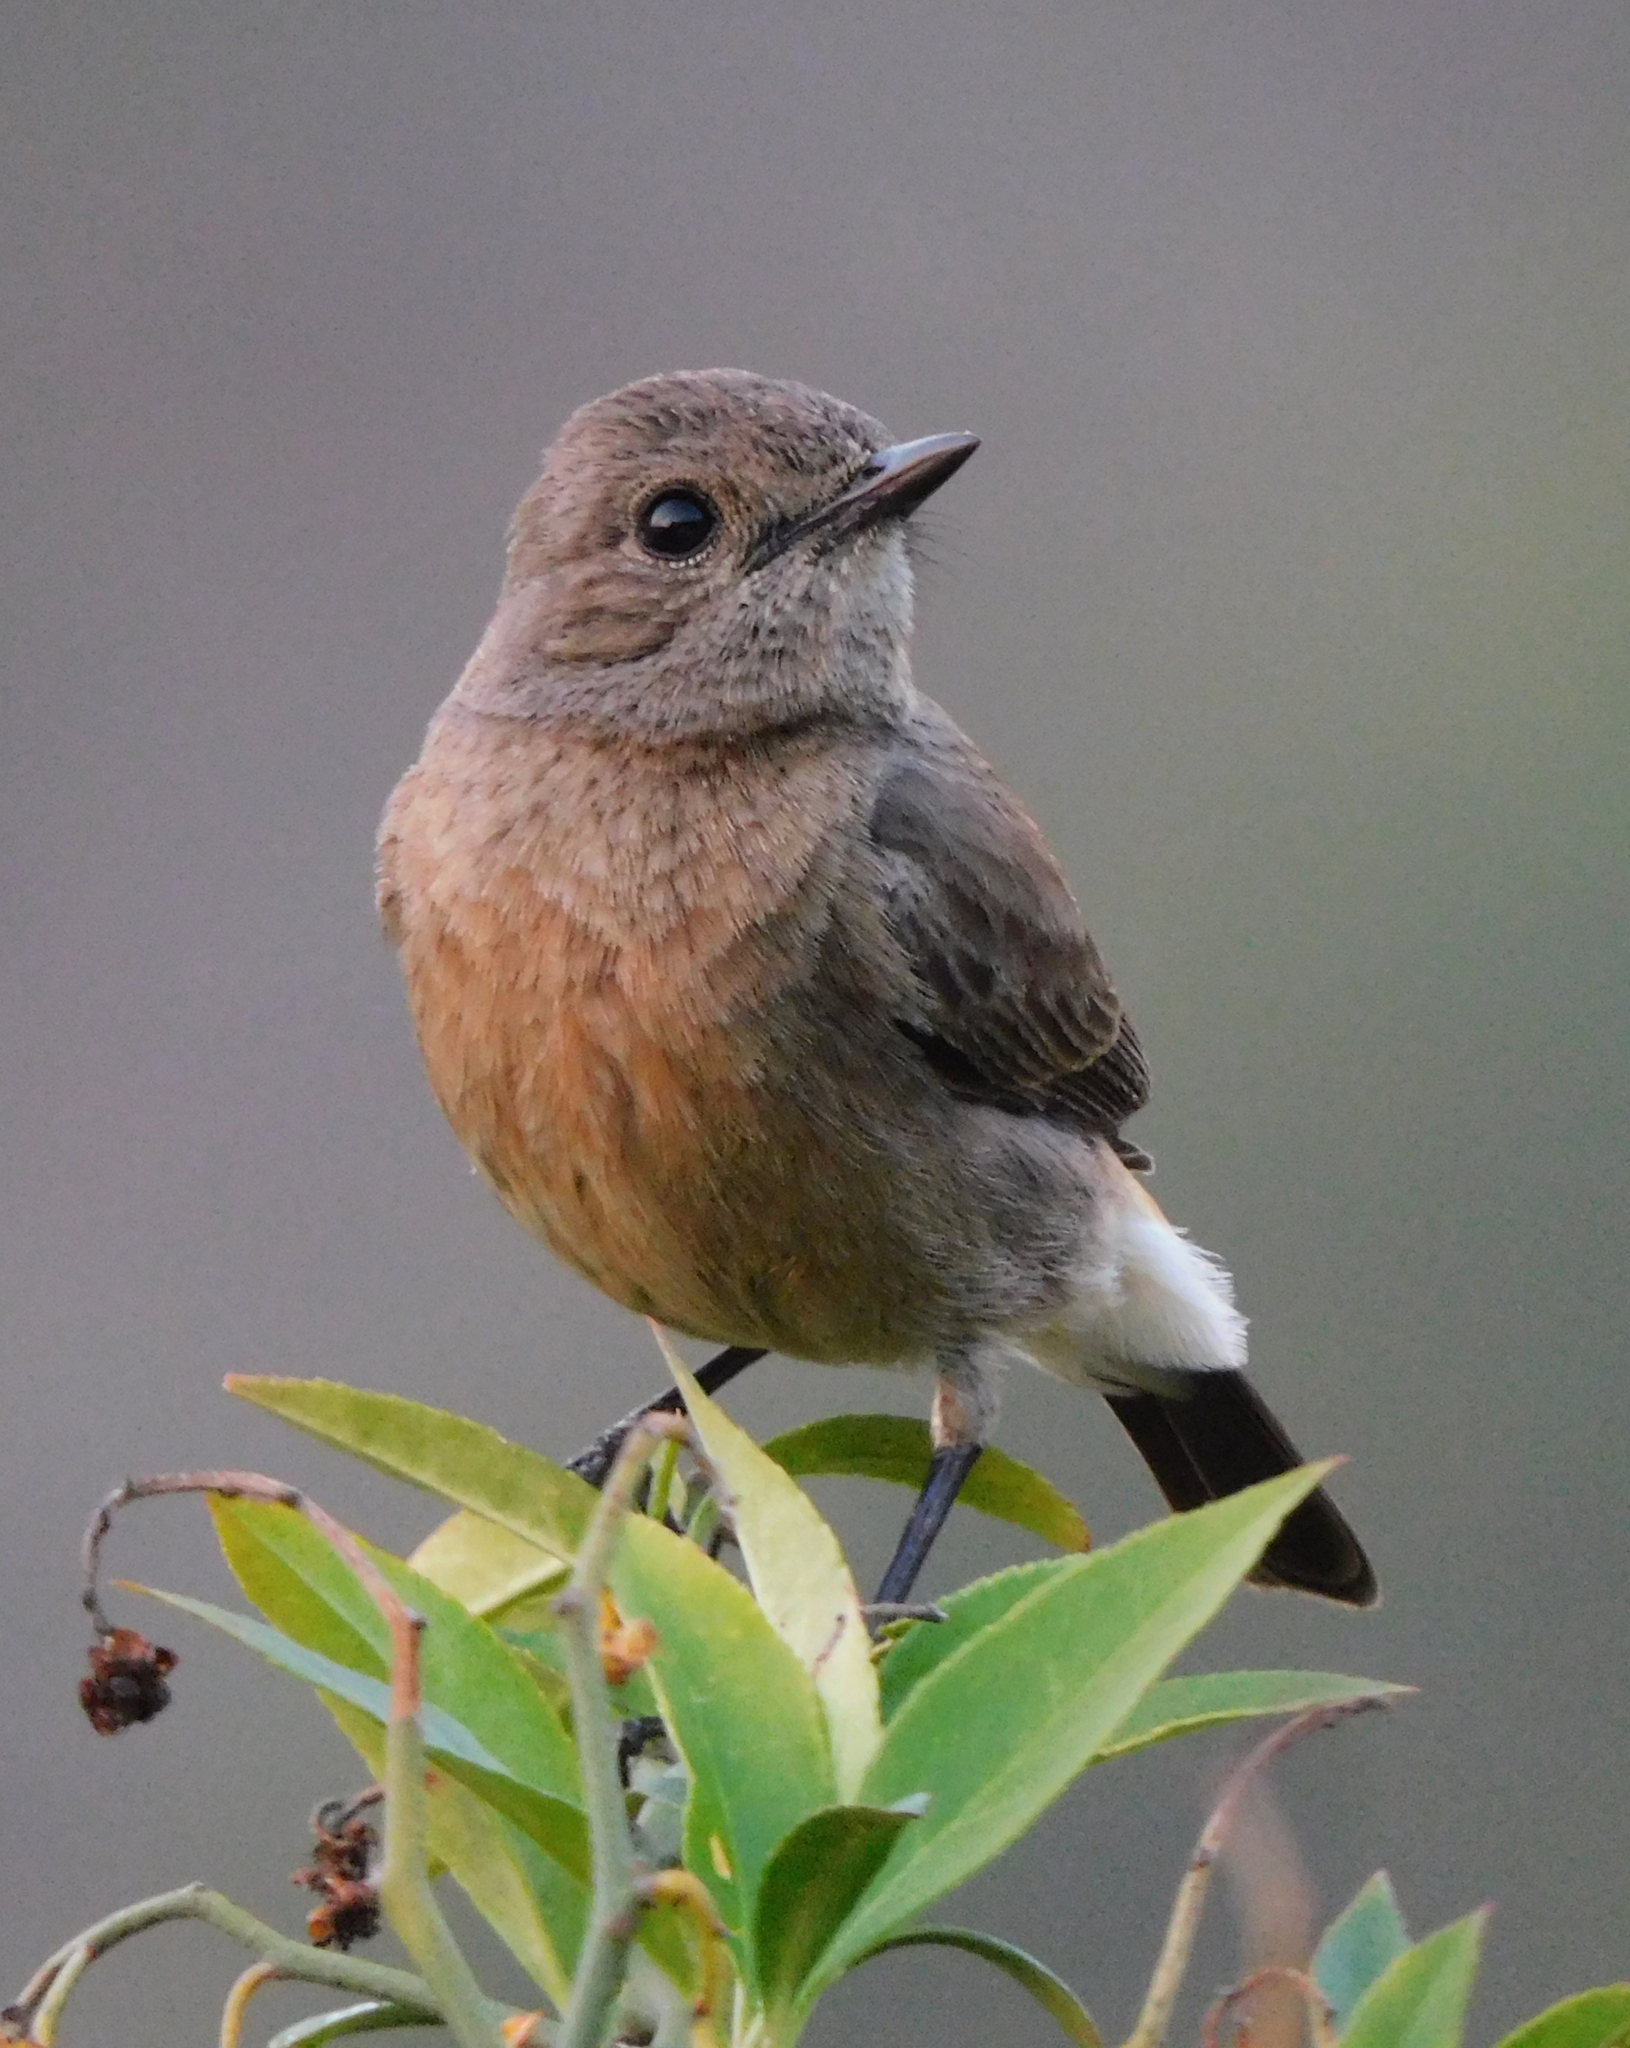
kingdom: Animalia
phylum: Chordata
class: Aves
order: Passeriformes
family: Muscicapidae
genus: Saxicola
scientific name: Saxicola caprata
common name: Pied bush chat
